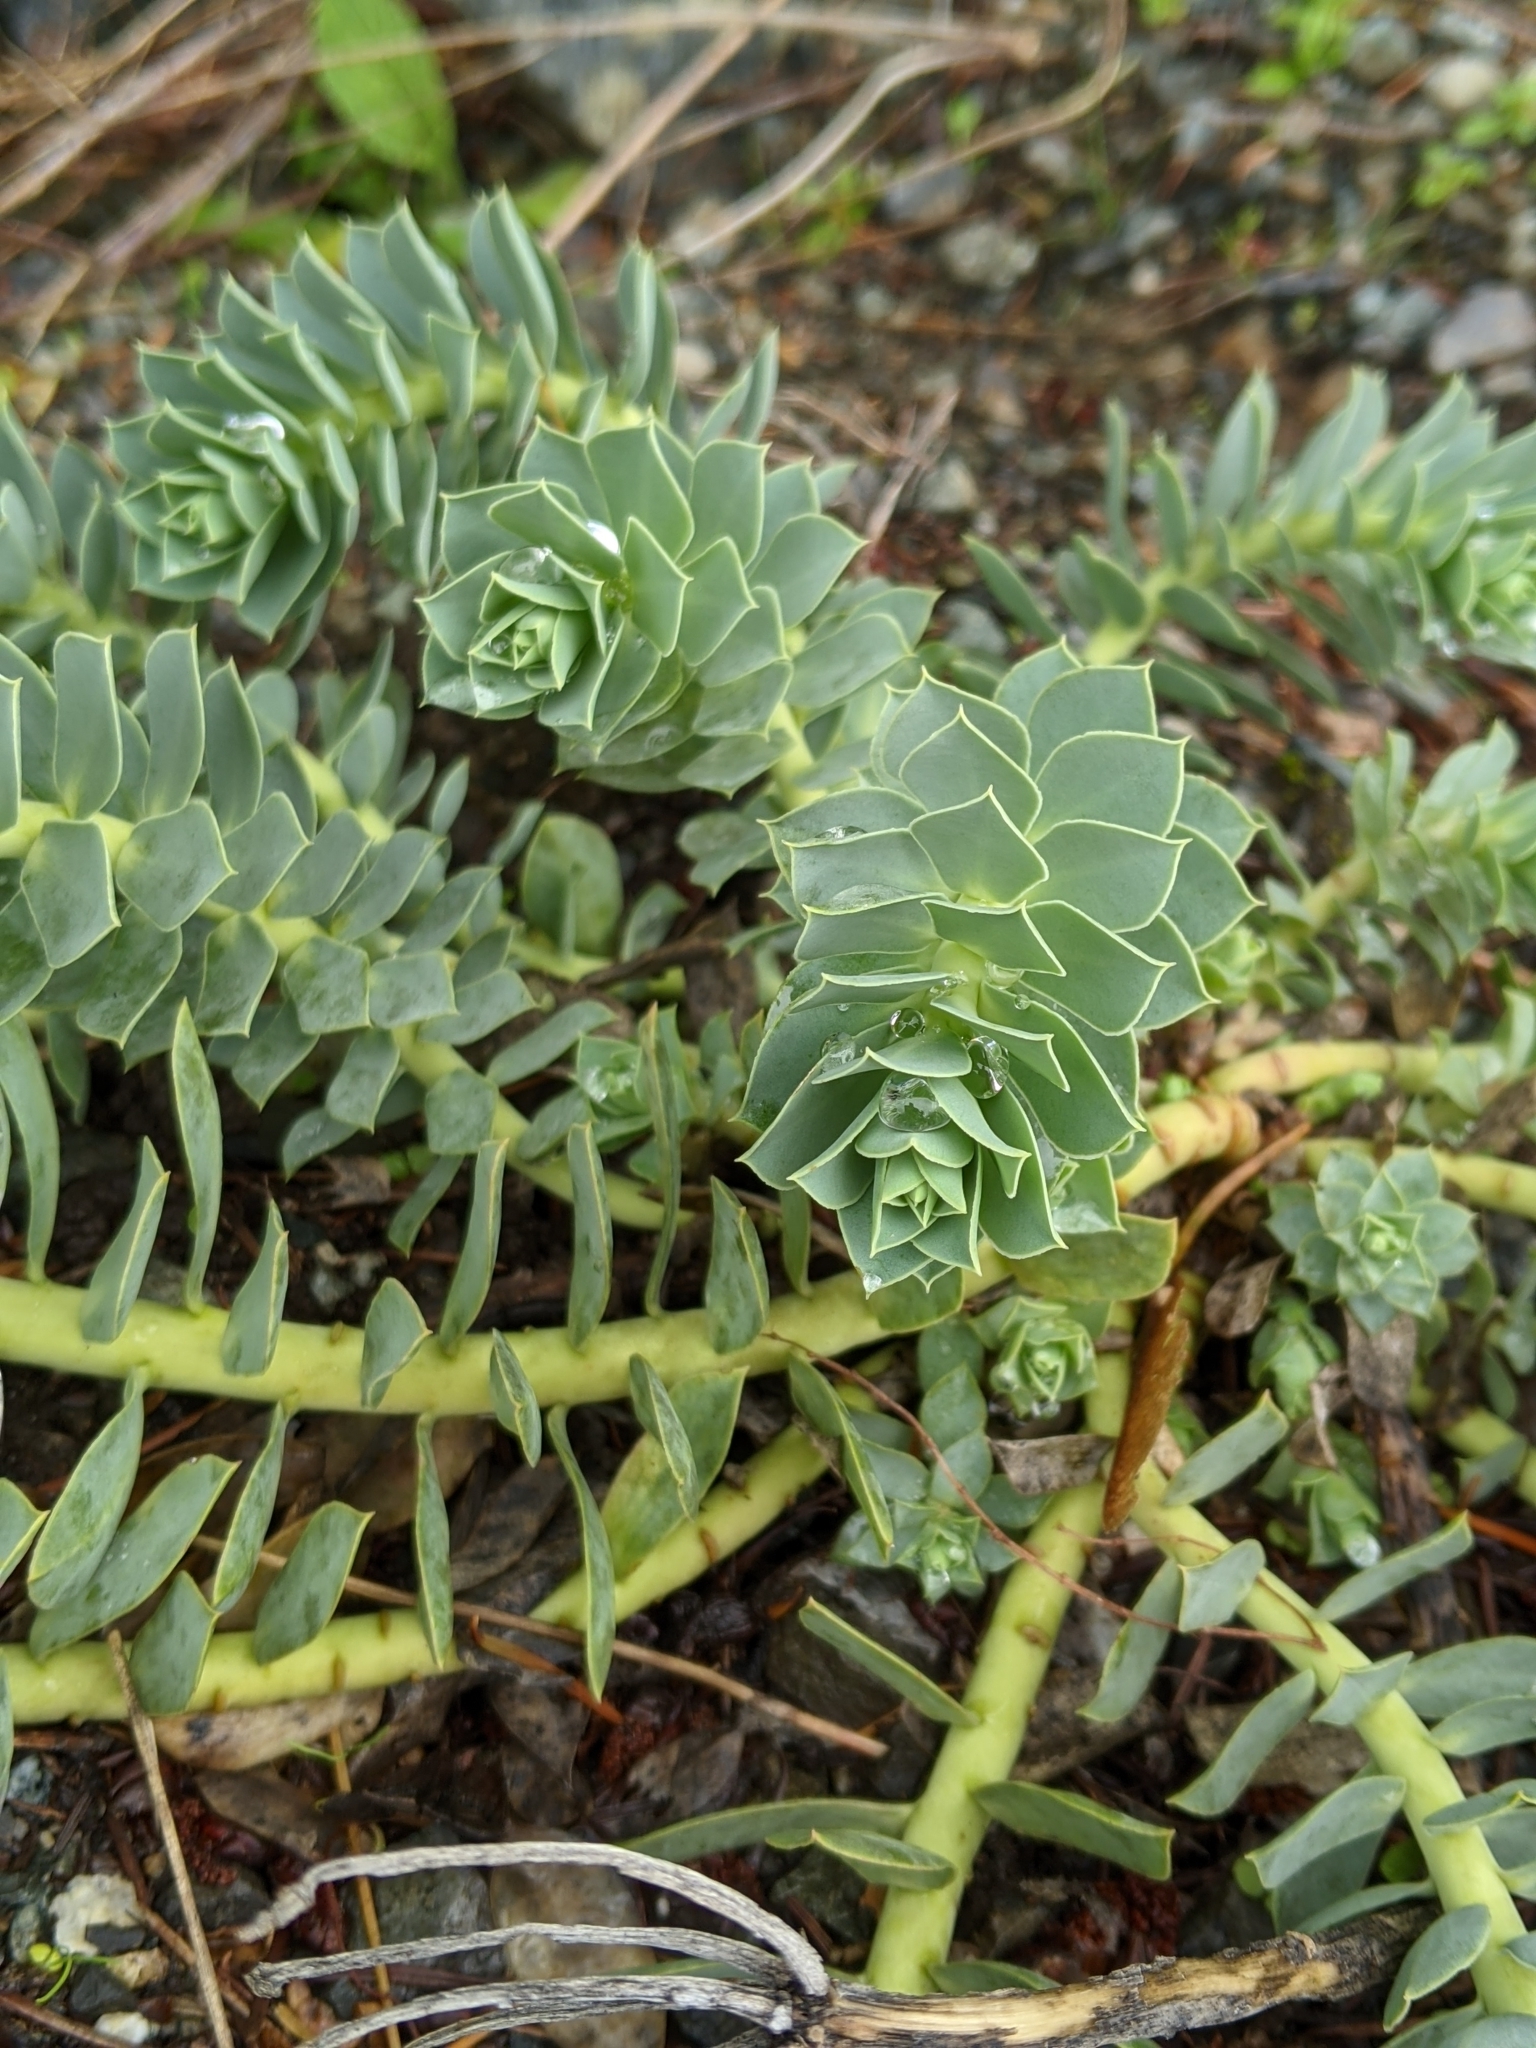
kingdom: Plantae
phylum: Tracheophyta
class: Magnoliopsida
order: Malpighiales
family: Euphorbiaceae
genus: Euphorbia
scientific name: Euphorbia myrsinites
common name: Myrtle spurge
